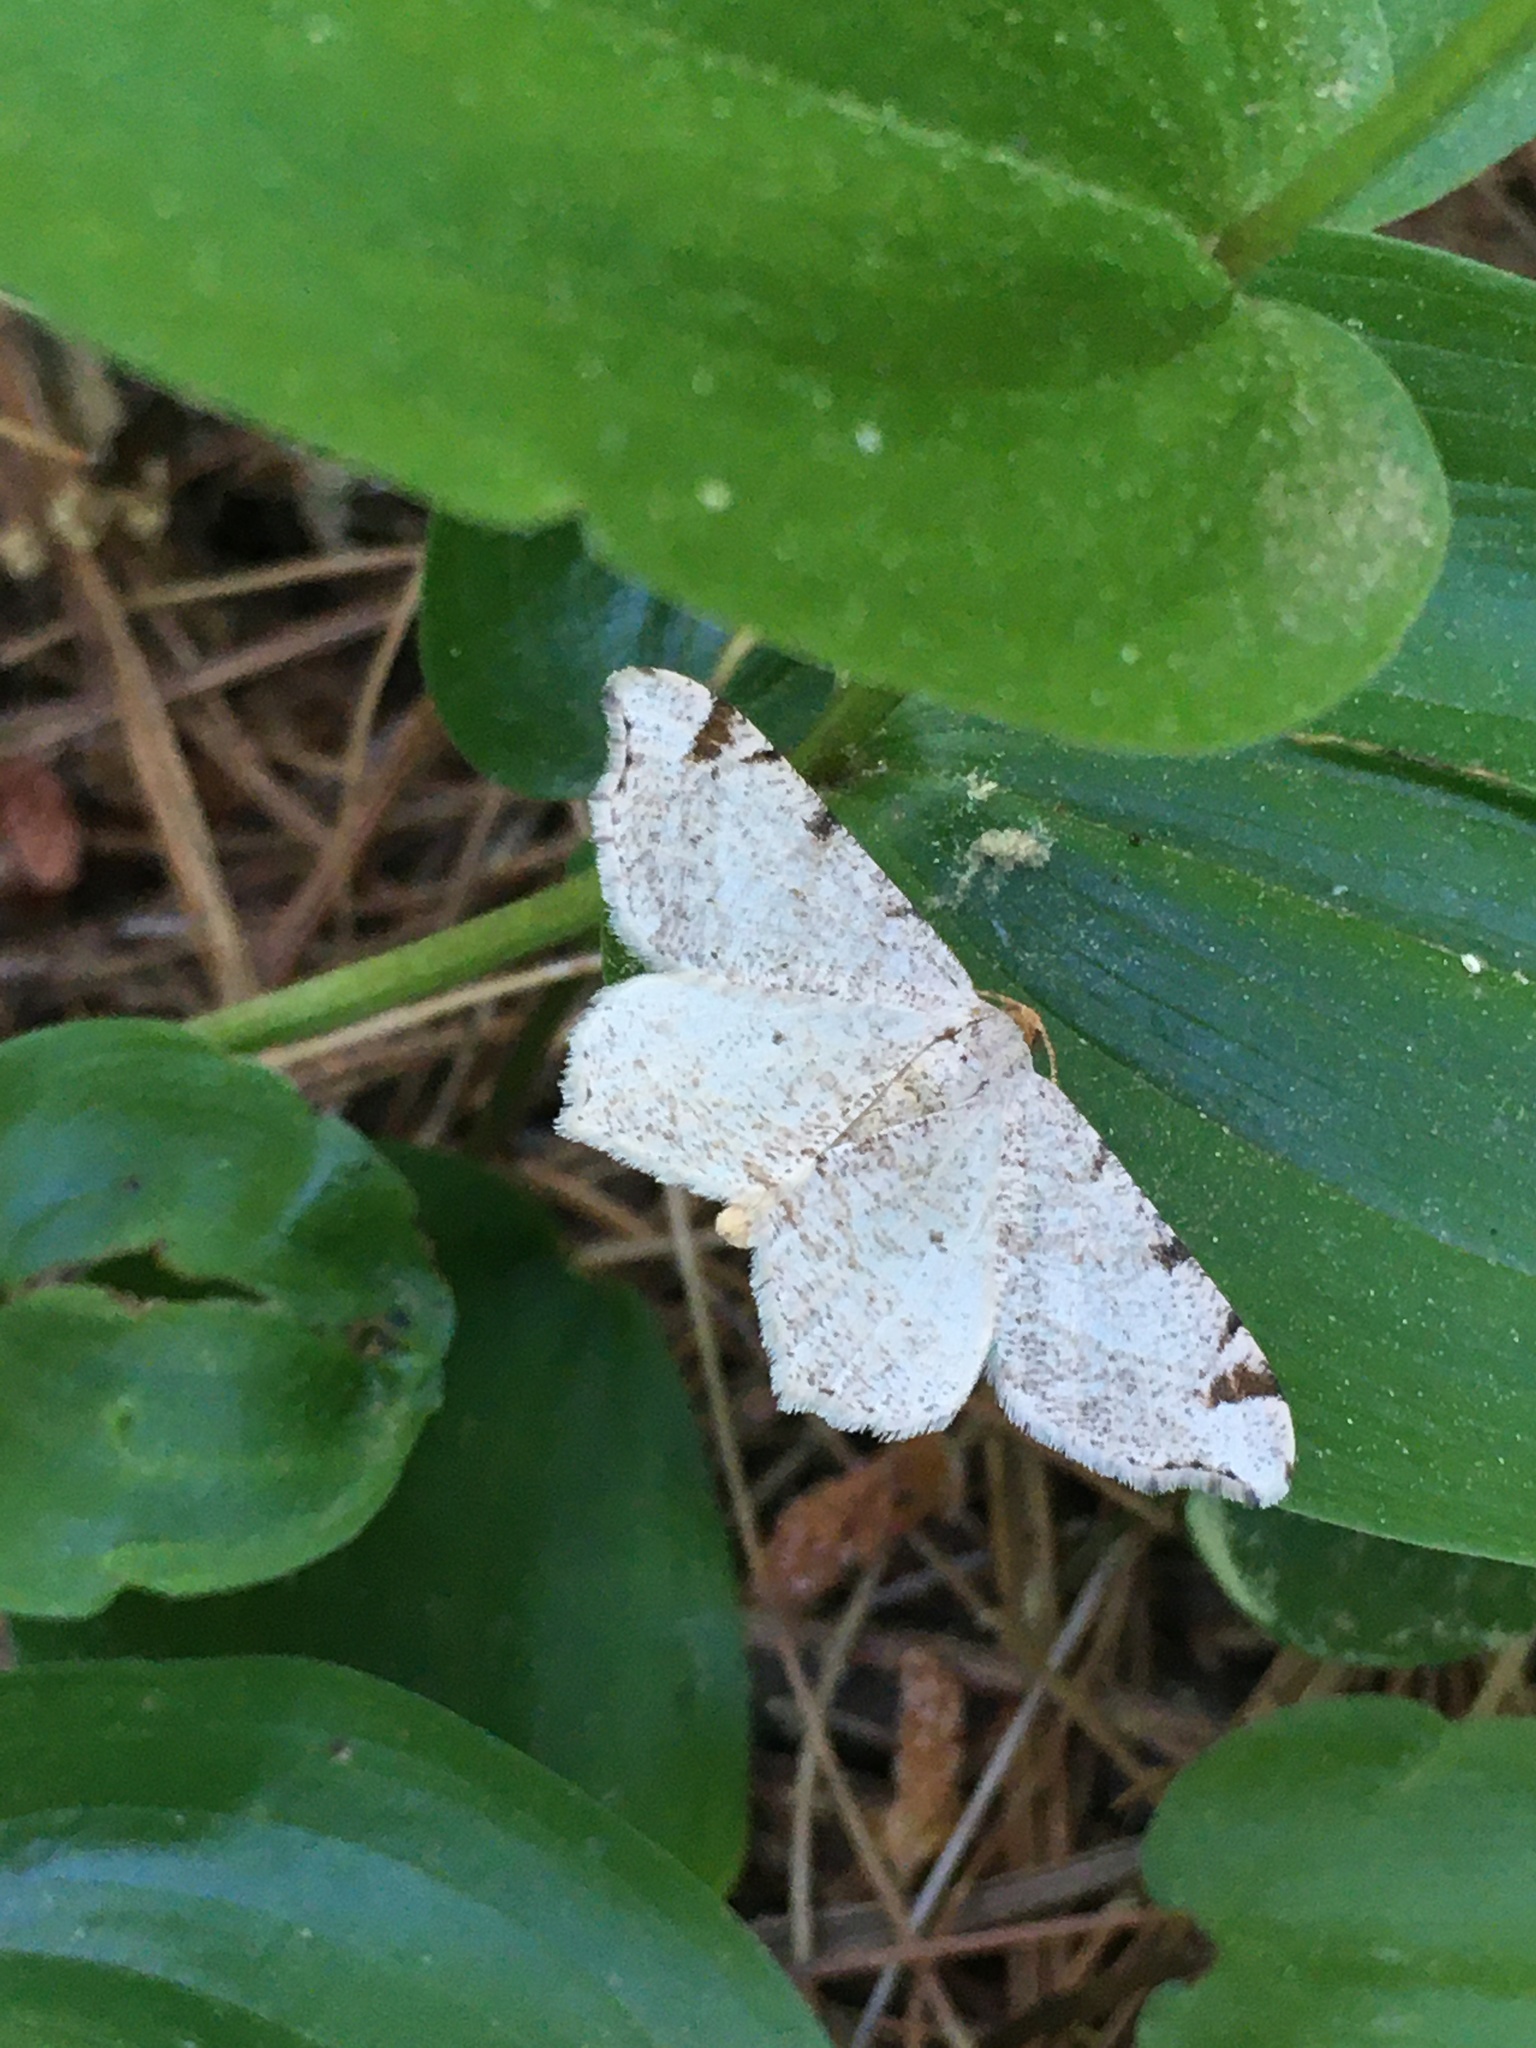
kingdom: Animalia
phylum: Arthropoda
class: Insecta
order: Lepidoptera
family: Geometridae
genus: Macaria
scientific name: Macaria bisignata
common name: Red-headed inchworm
